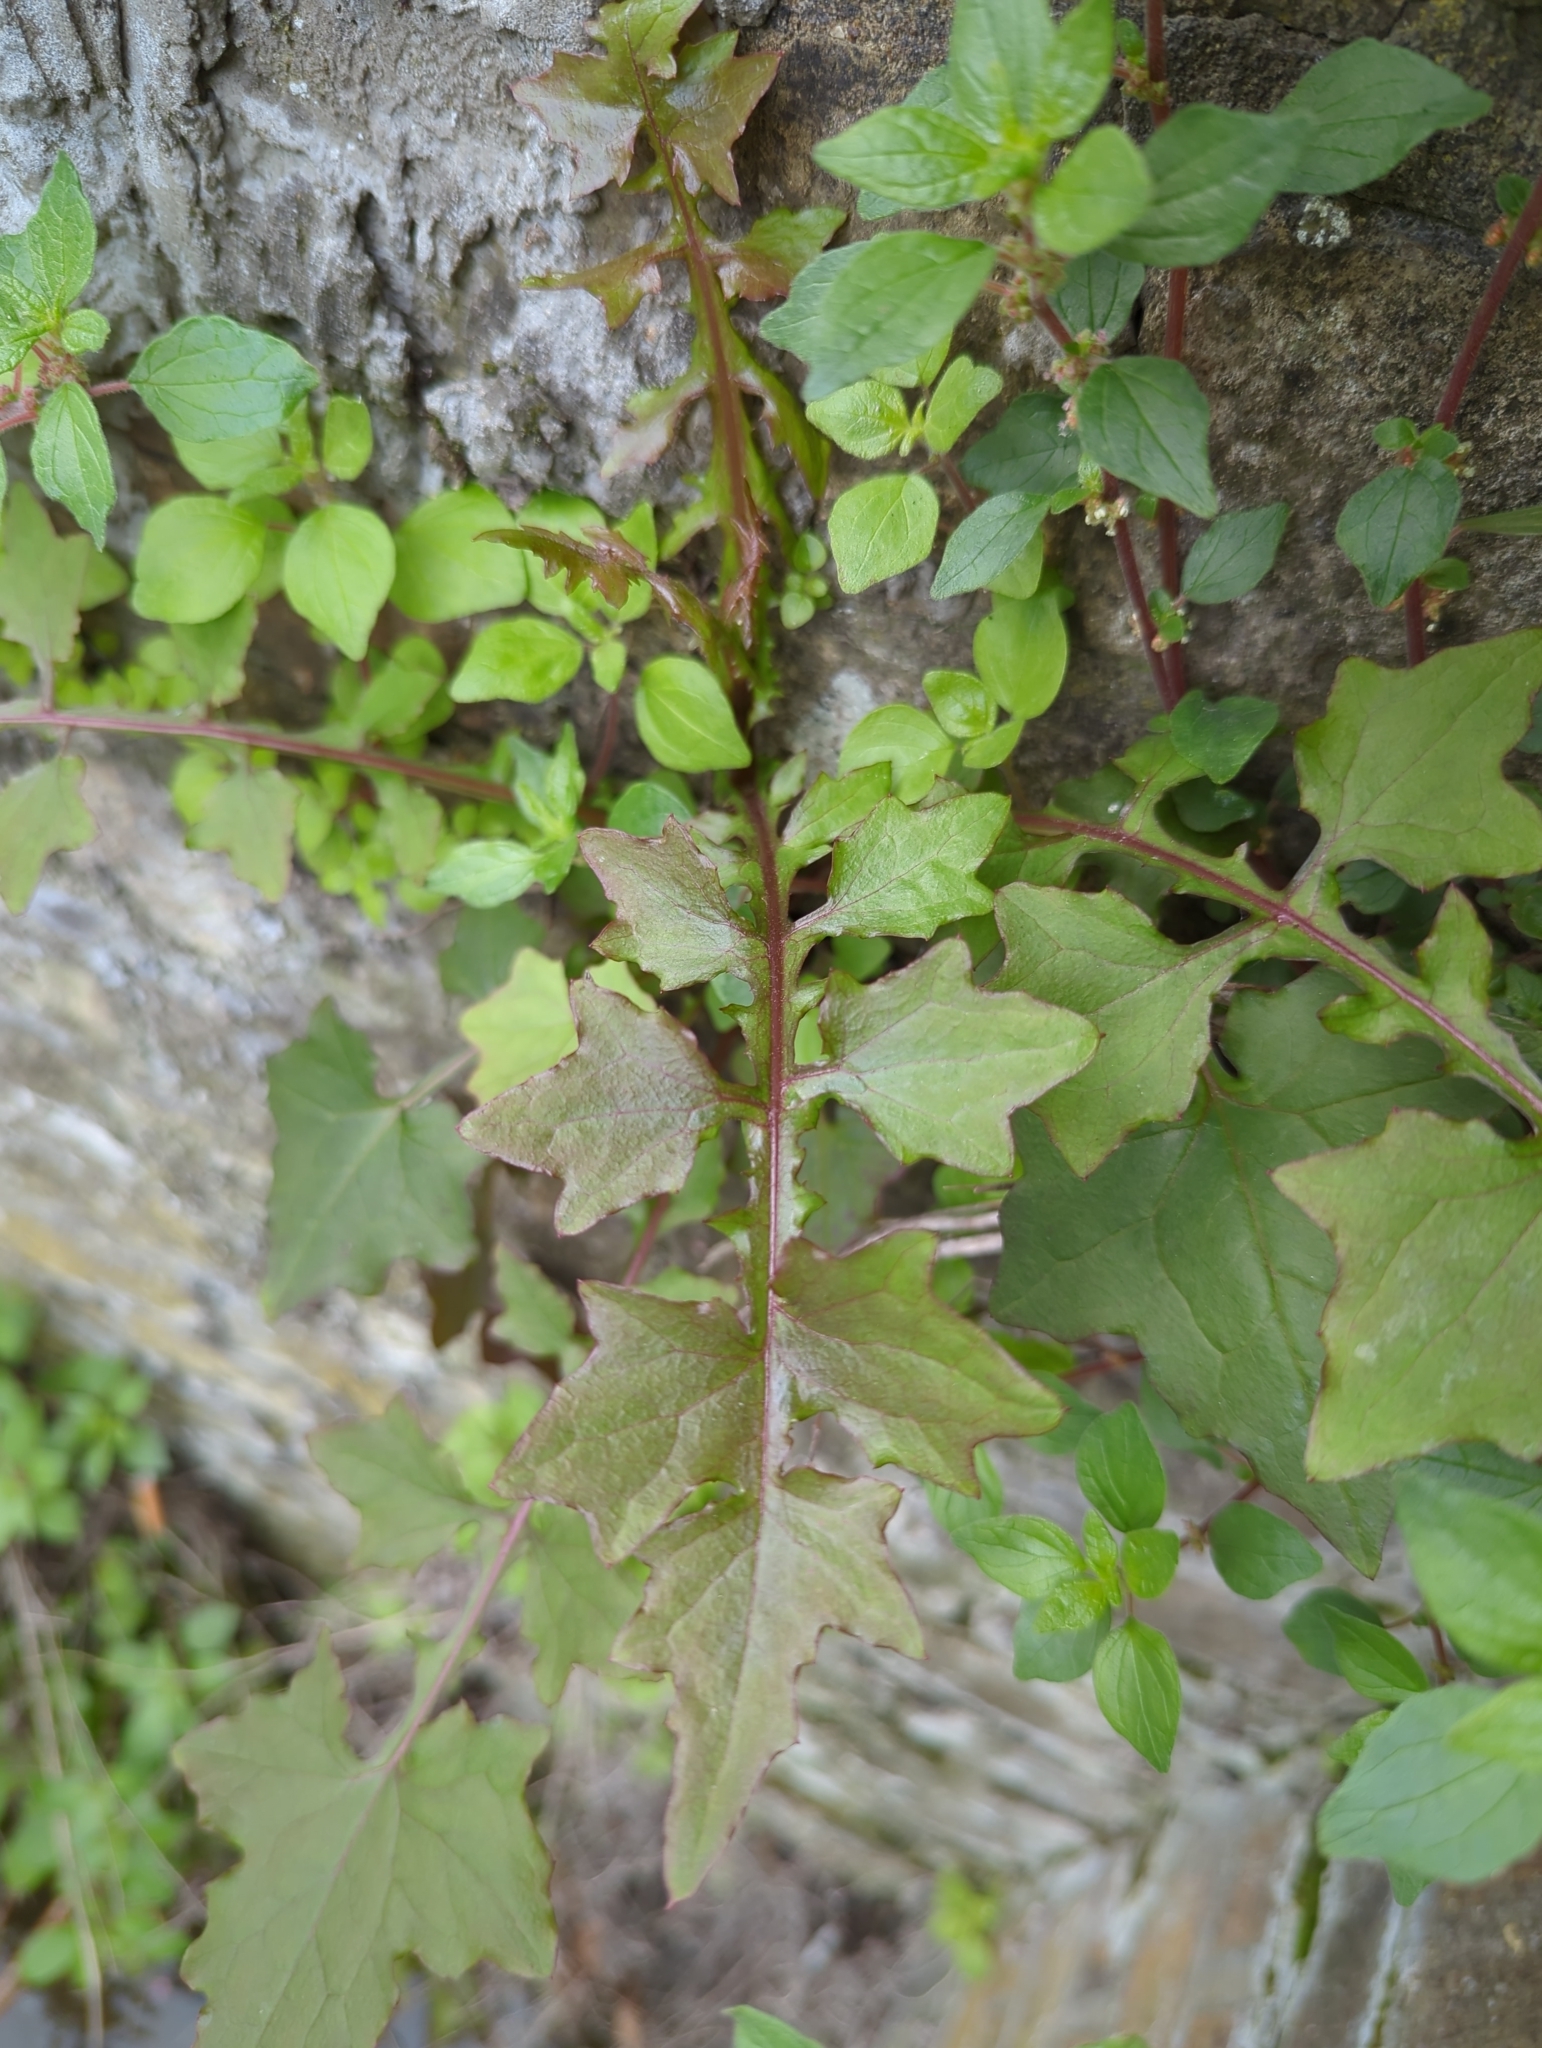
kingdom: Plantae
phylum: Tracheophyta
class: Magnoliopsida
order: Asterales
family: Asteraceae
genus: Mycelis
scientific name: Mycelis muralis
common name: Wall lettuce
